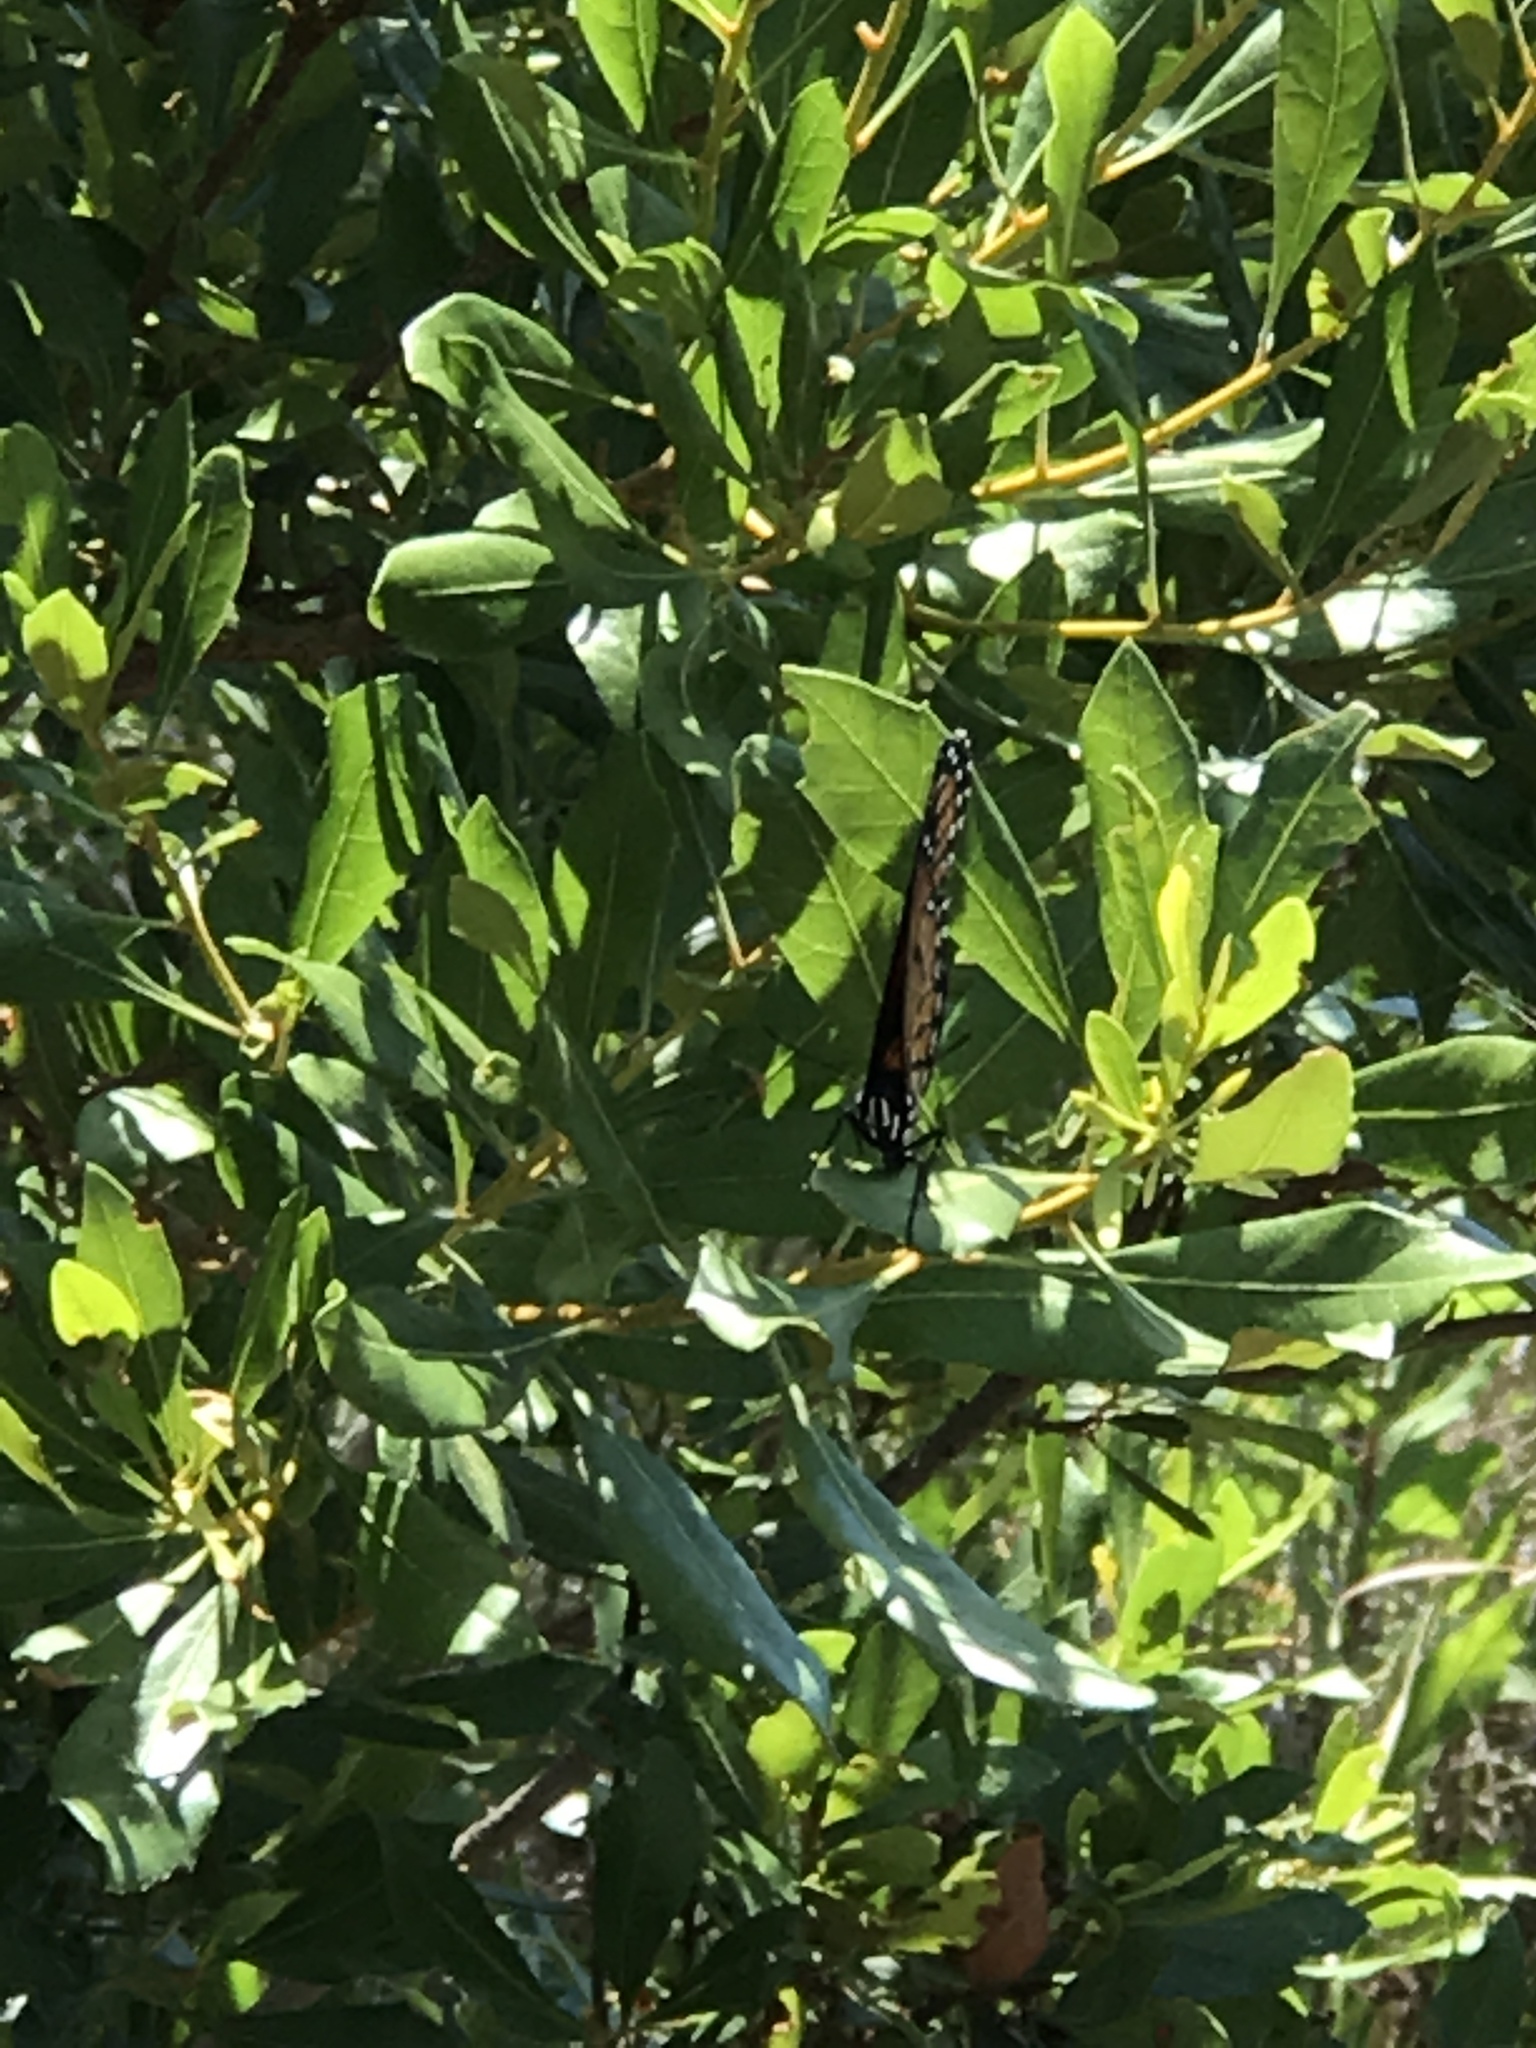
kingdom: Animalia
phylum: Arthropoda
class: Insecta
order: Lepidoptera
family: Nymphalidae
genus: Limenitis
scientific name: Limenitis archippus
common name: Viceroy
